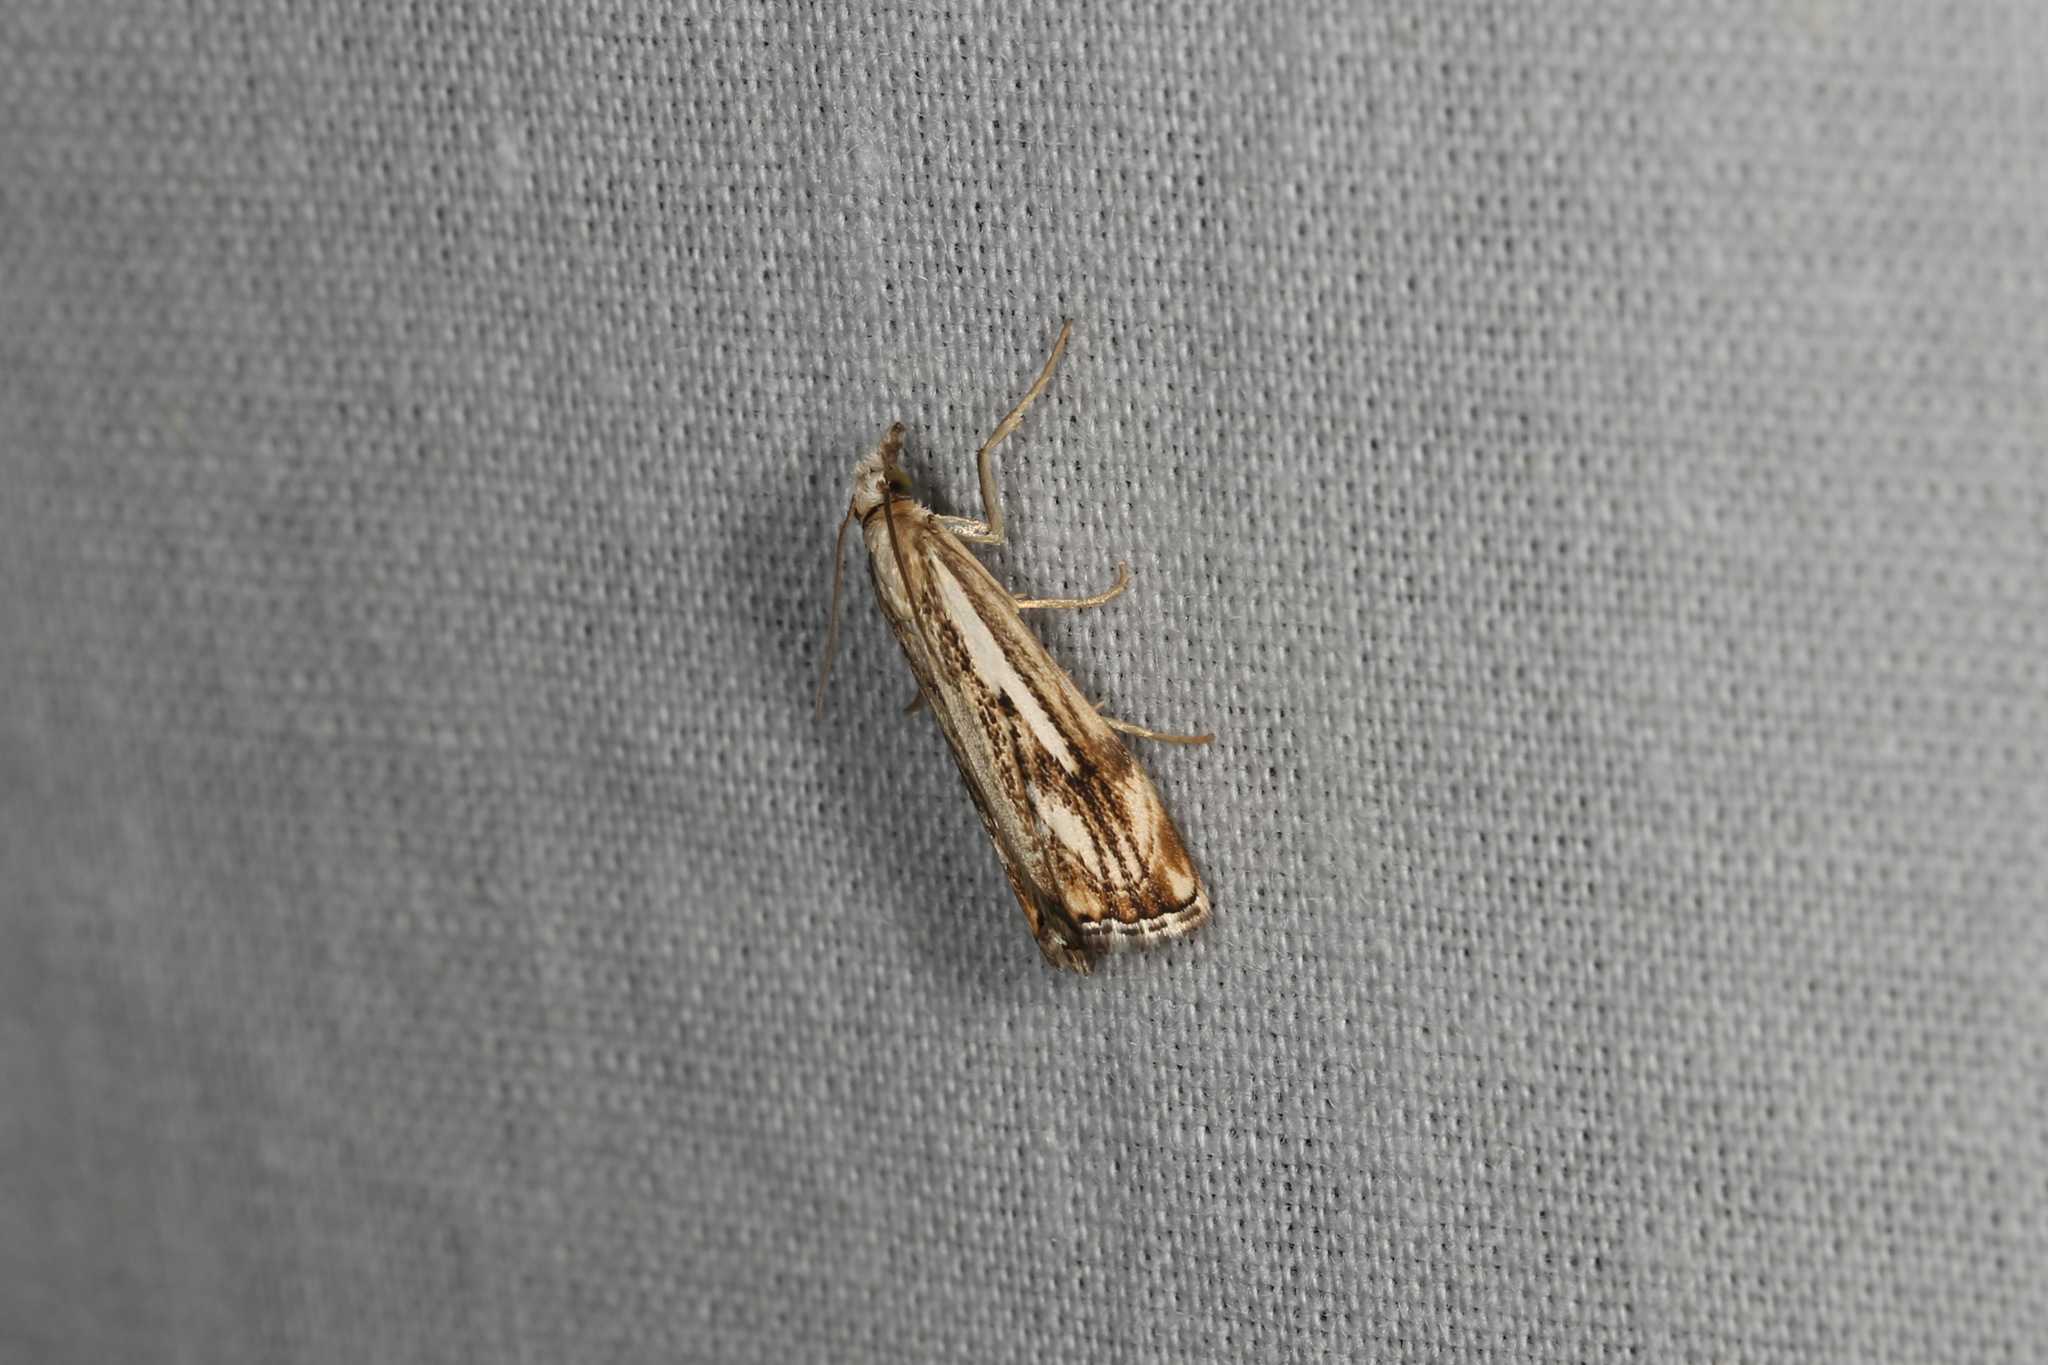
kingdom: Animalia
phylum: Arthropoda
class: Insecta
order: Lepidoptera
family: Crambidae
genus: Catoptria
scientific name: Catoptria falsella
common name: Chequered grass-veneer
